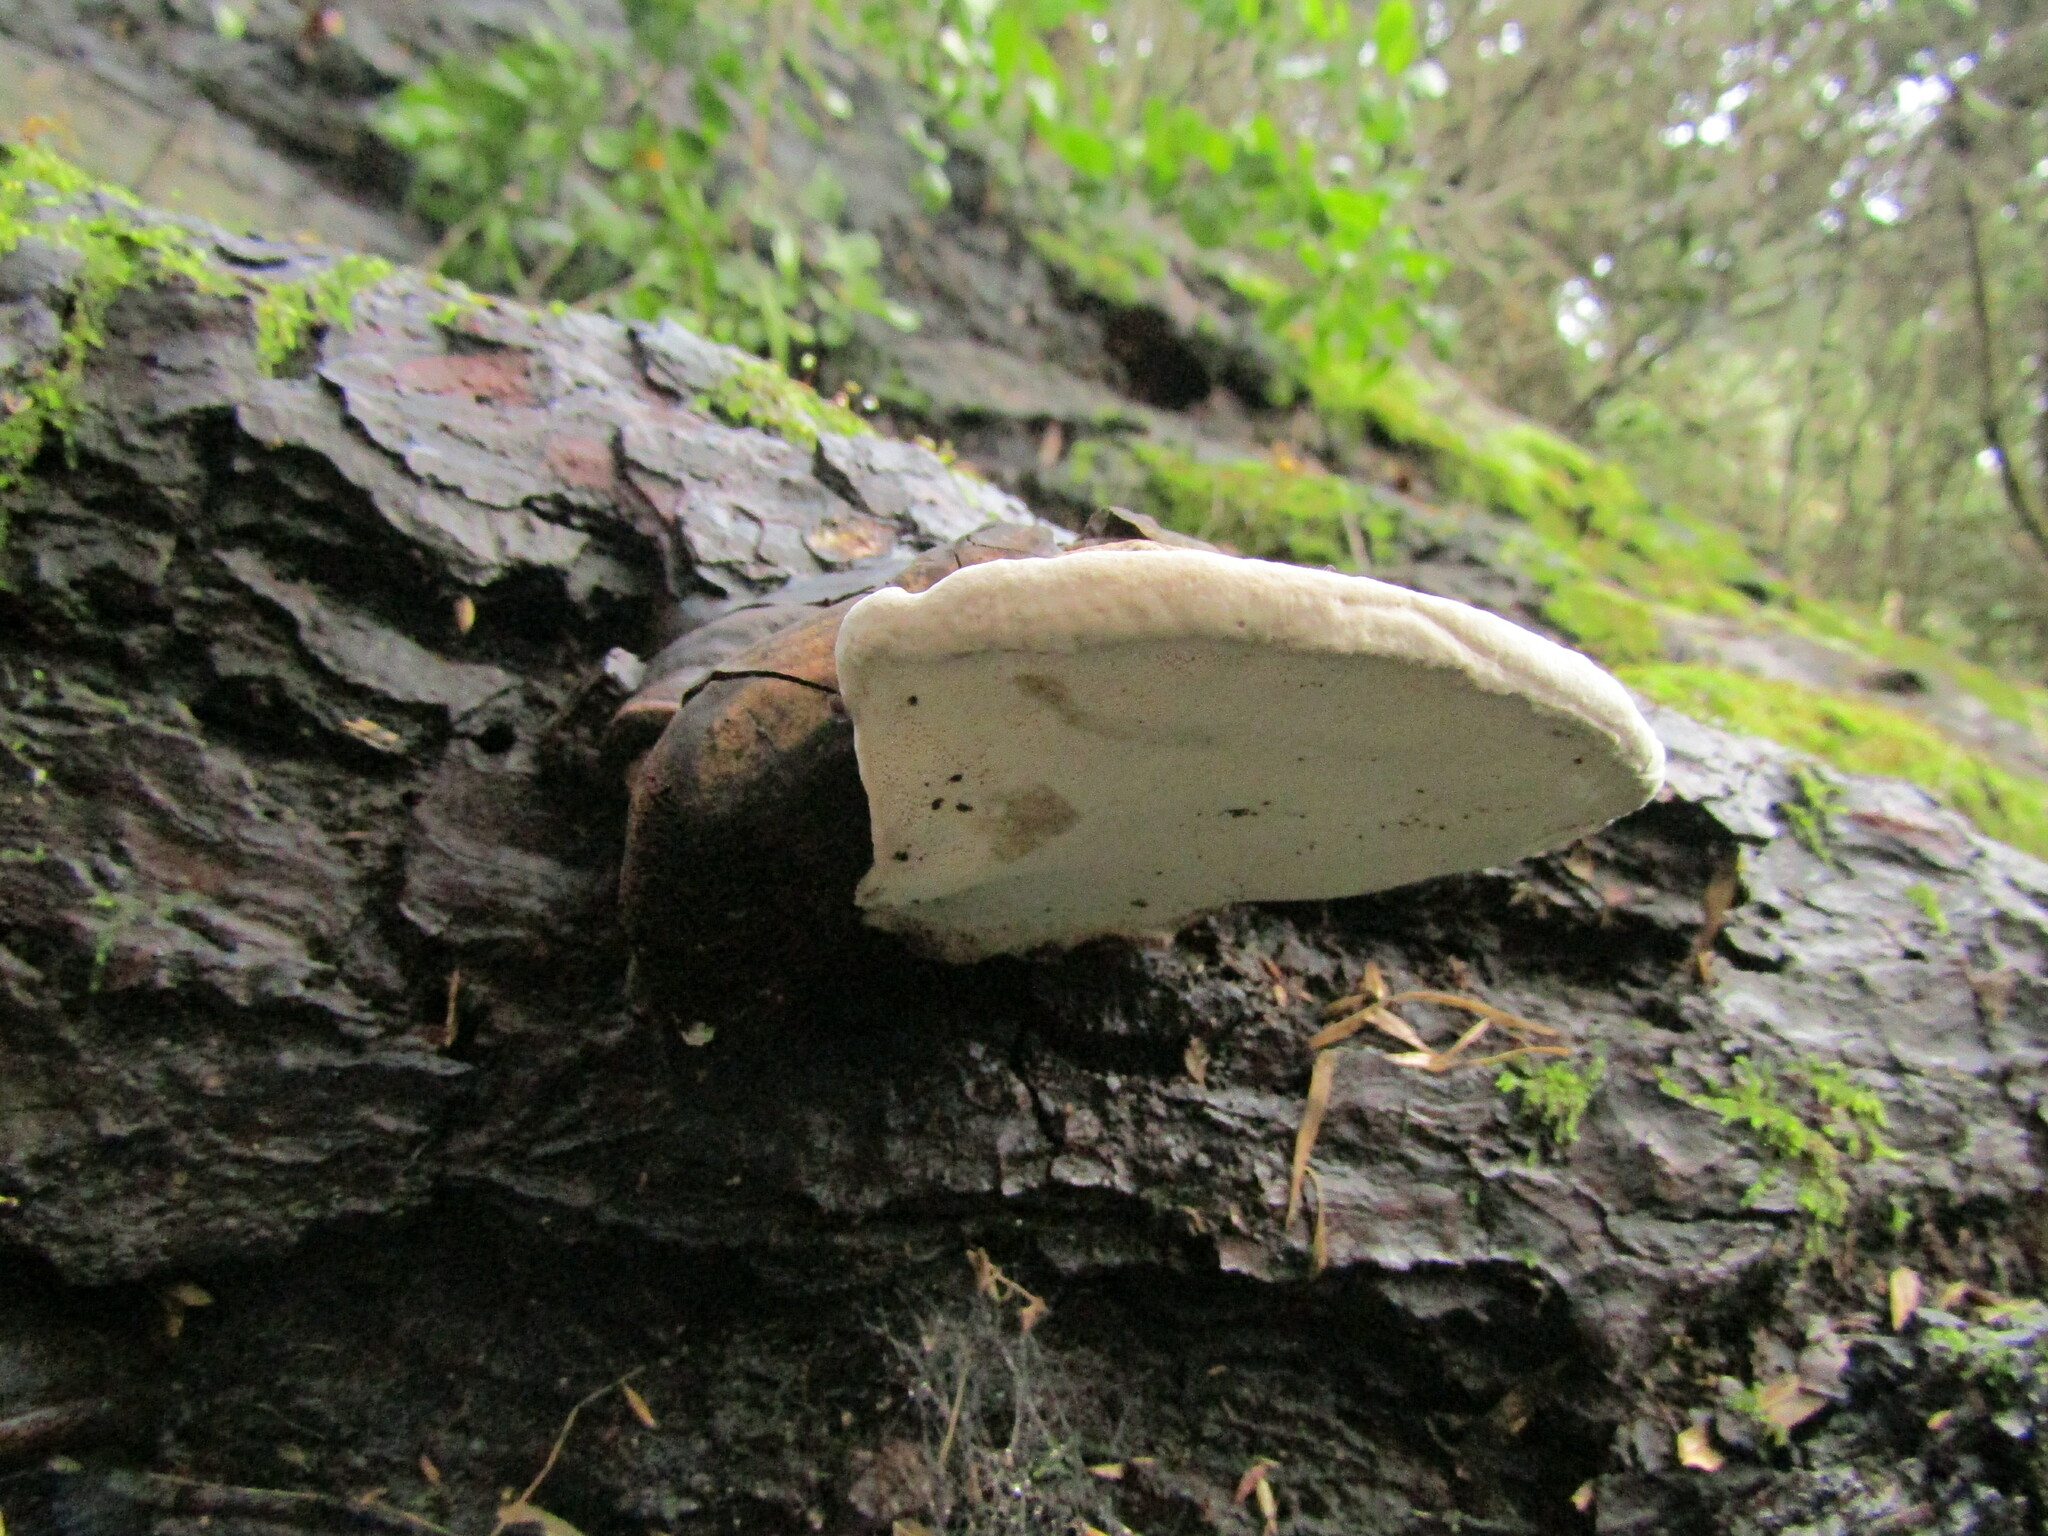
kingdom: Fungi
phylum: Basidiomycota
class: Agaricomycetes
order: Polyporales
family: Polyporaceae
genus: Ganoderma
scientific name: Ganoderma australe
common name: Southern bracket
